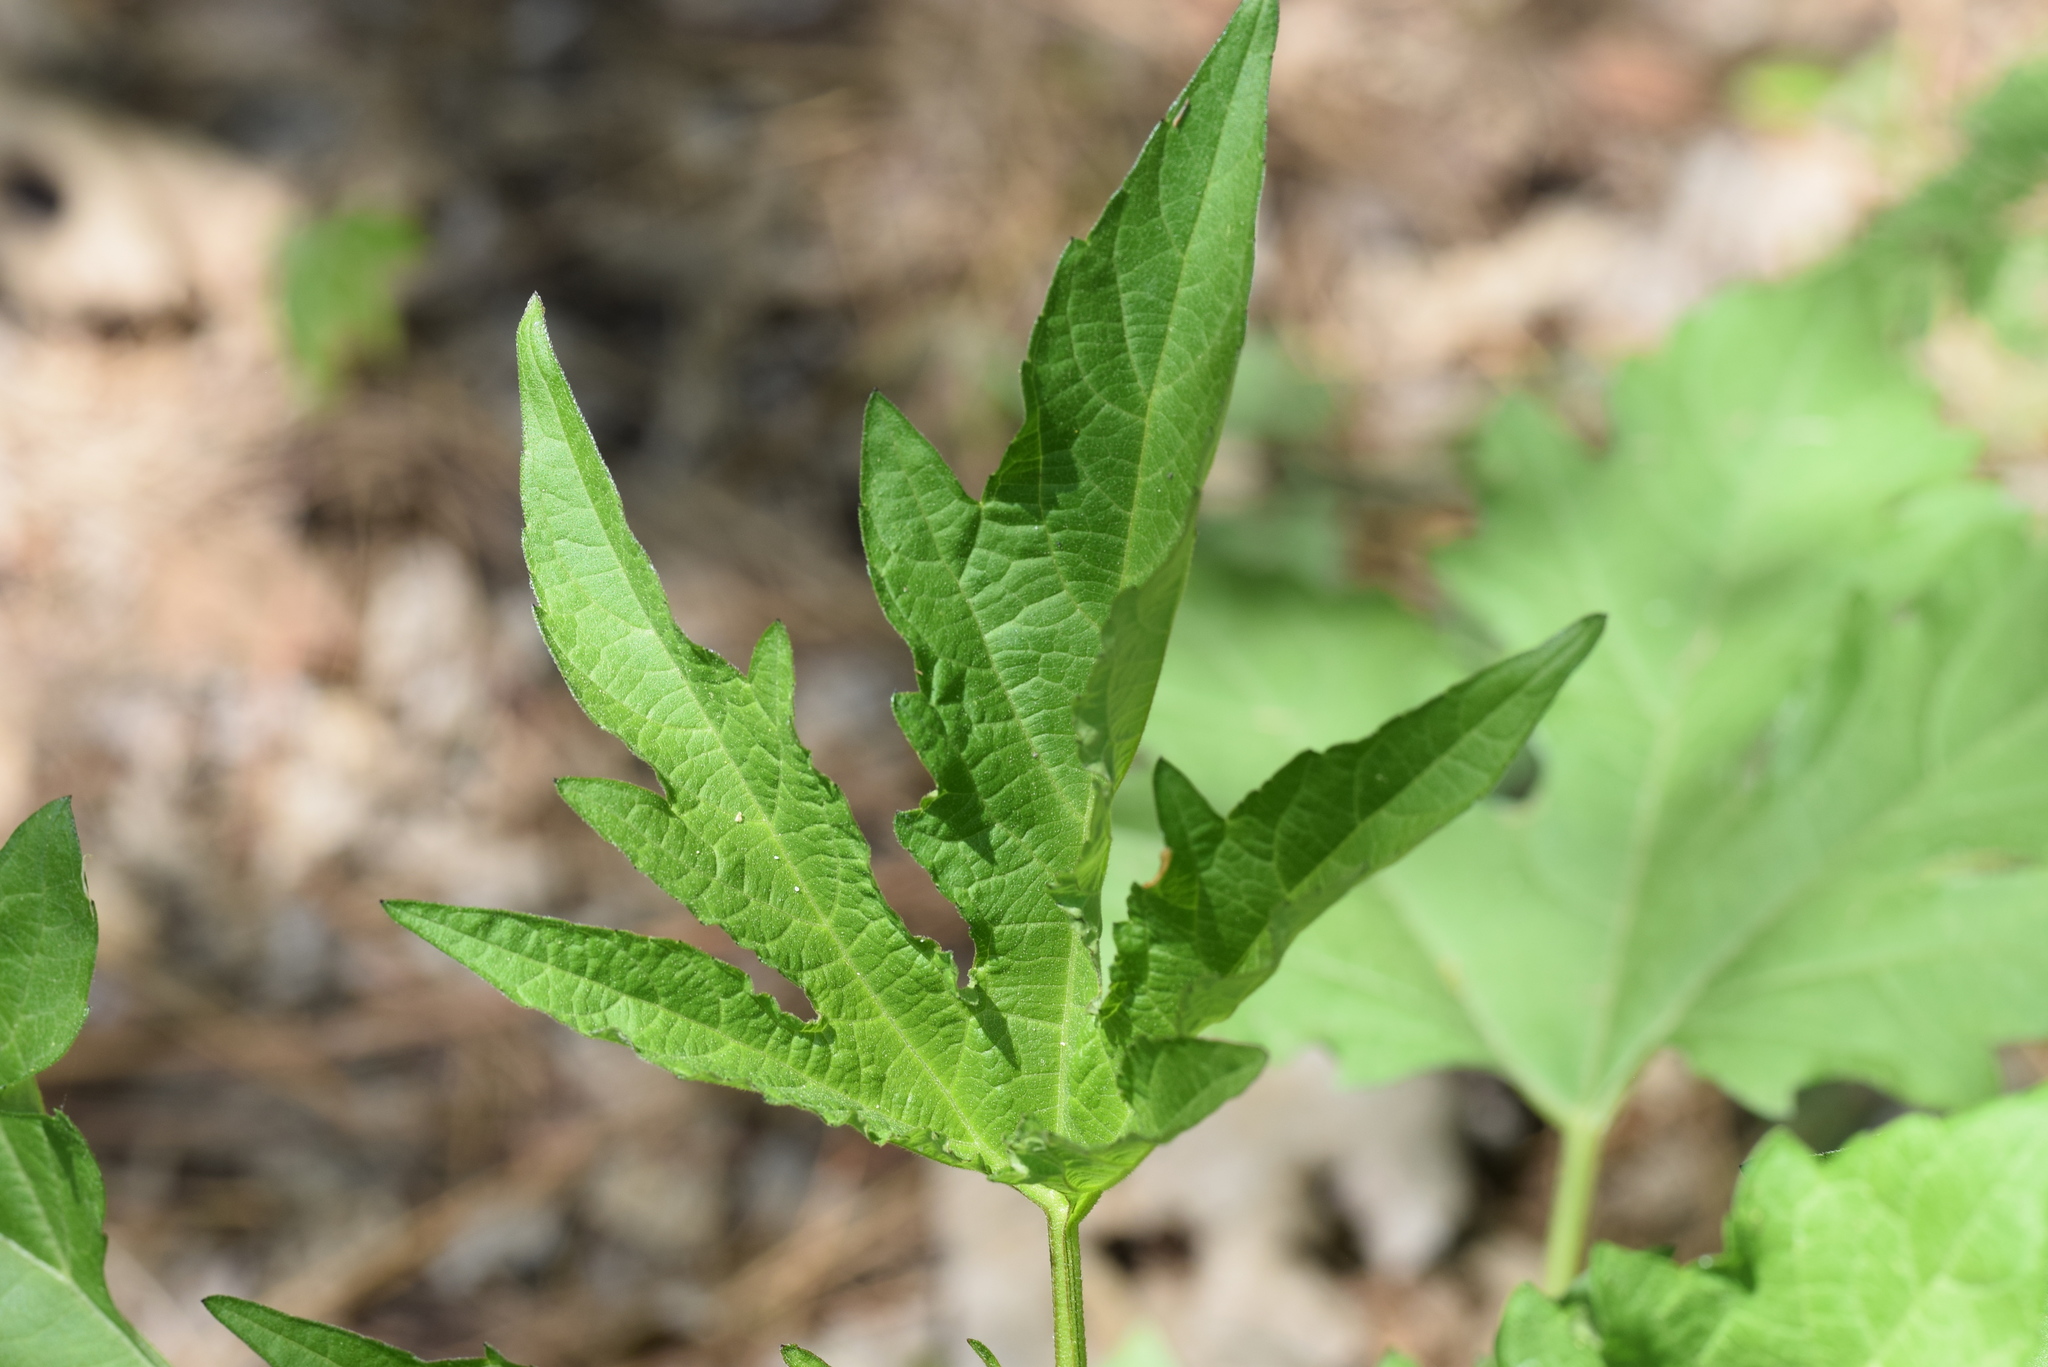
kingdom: Plantae
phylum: Tracheophyta
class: Magnoliopsida
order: Asterales
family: Asteraceae
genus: Ambrosia
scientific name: Ambrosia trifida
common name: Giant ragweed
